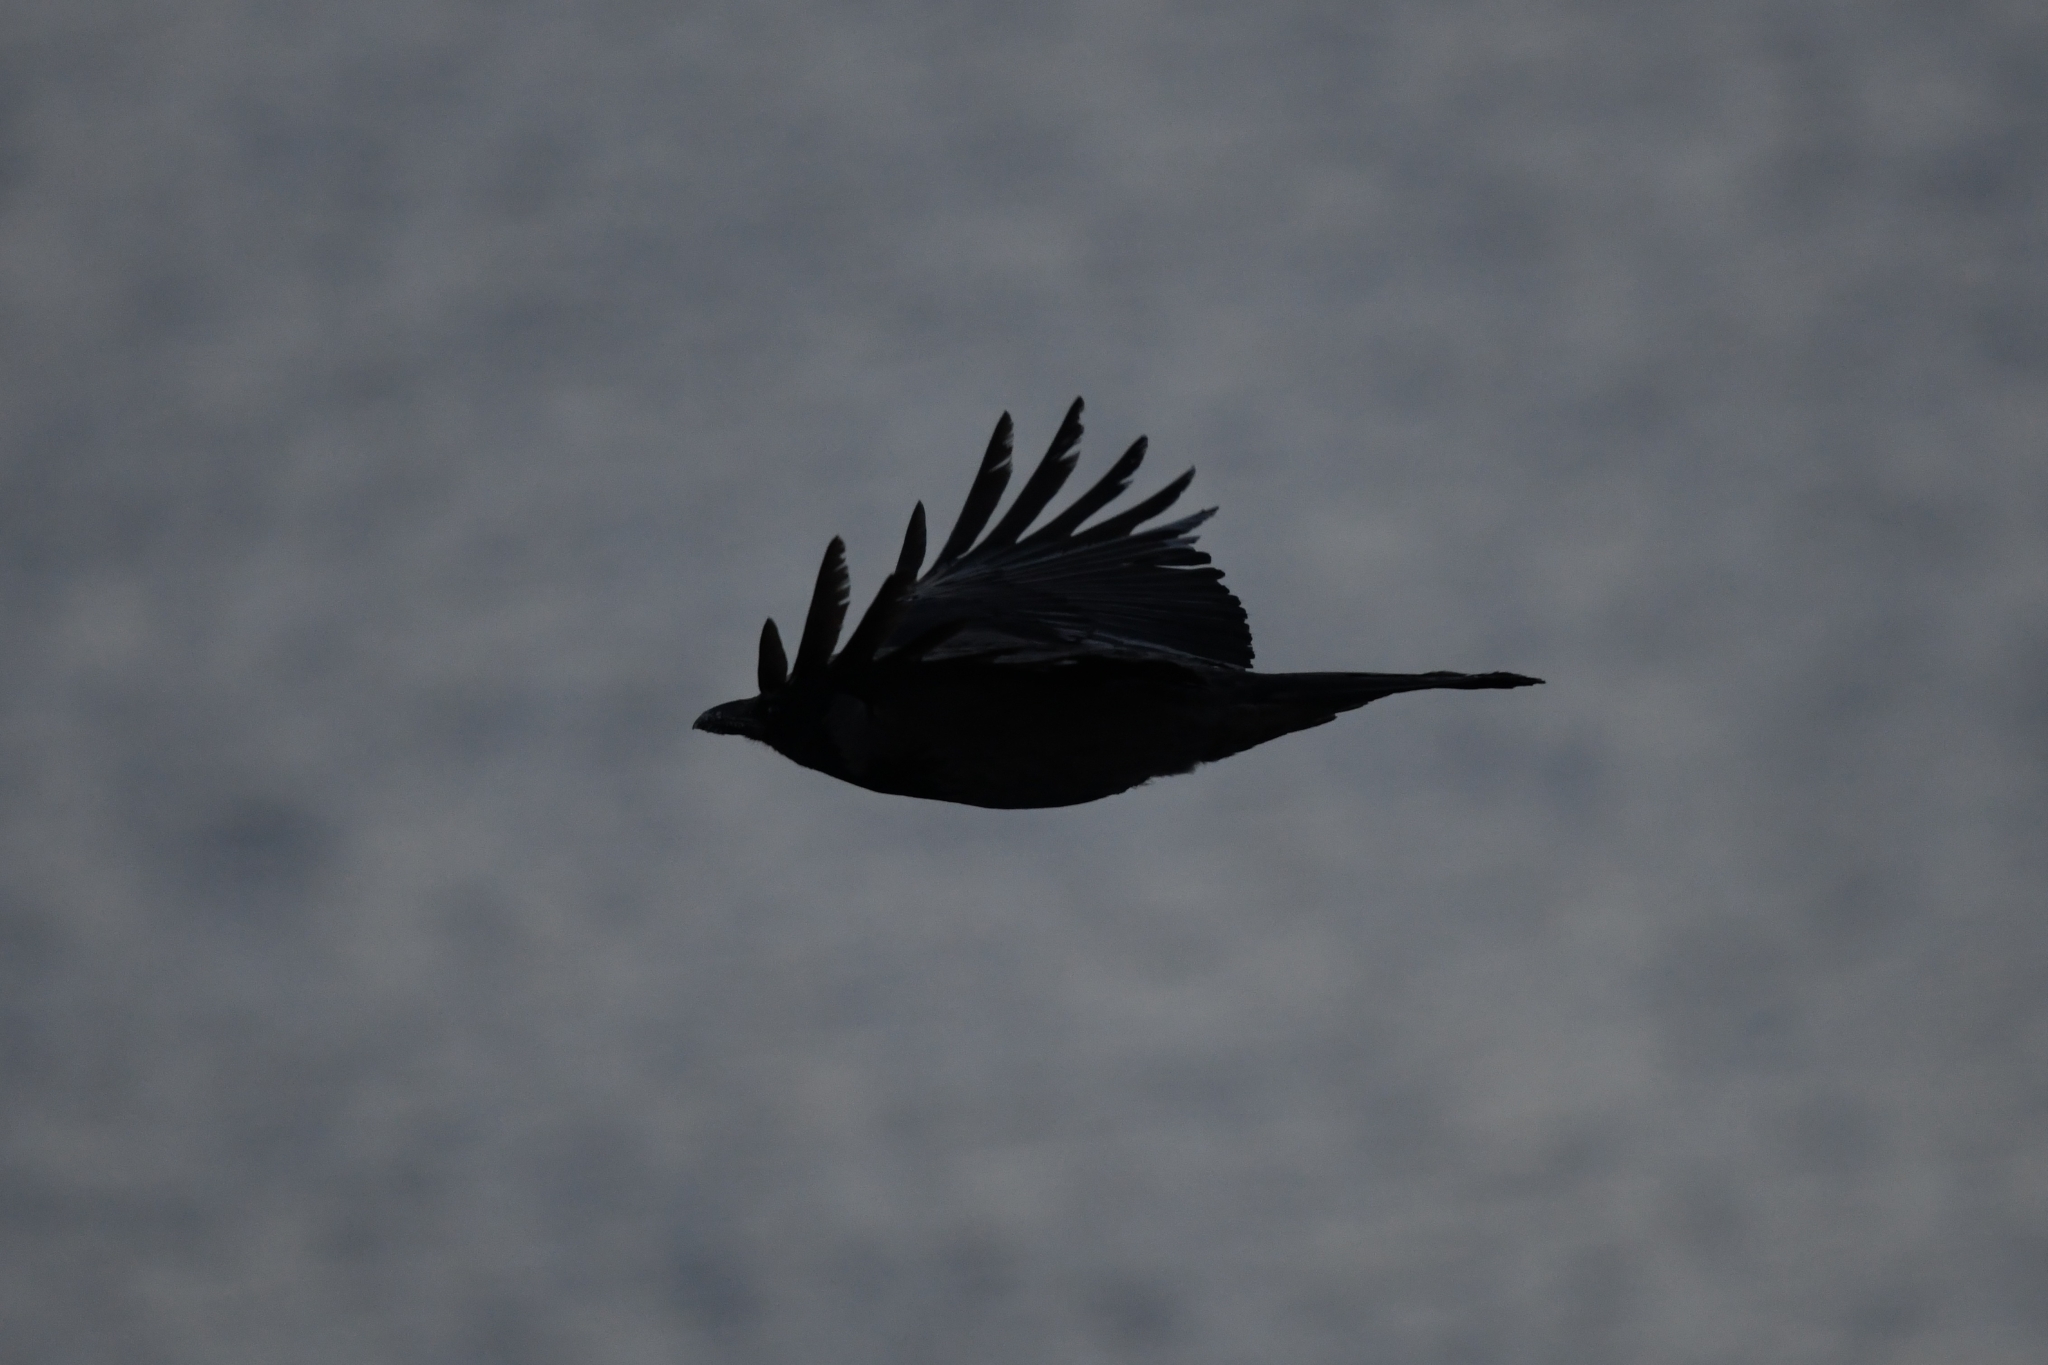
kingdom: Animalia
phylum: Chordata
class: Aves
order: Passeriformes
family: Corvidae
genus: Corvus
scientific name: Corvus cornix
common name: Hooded crow
